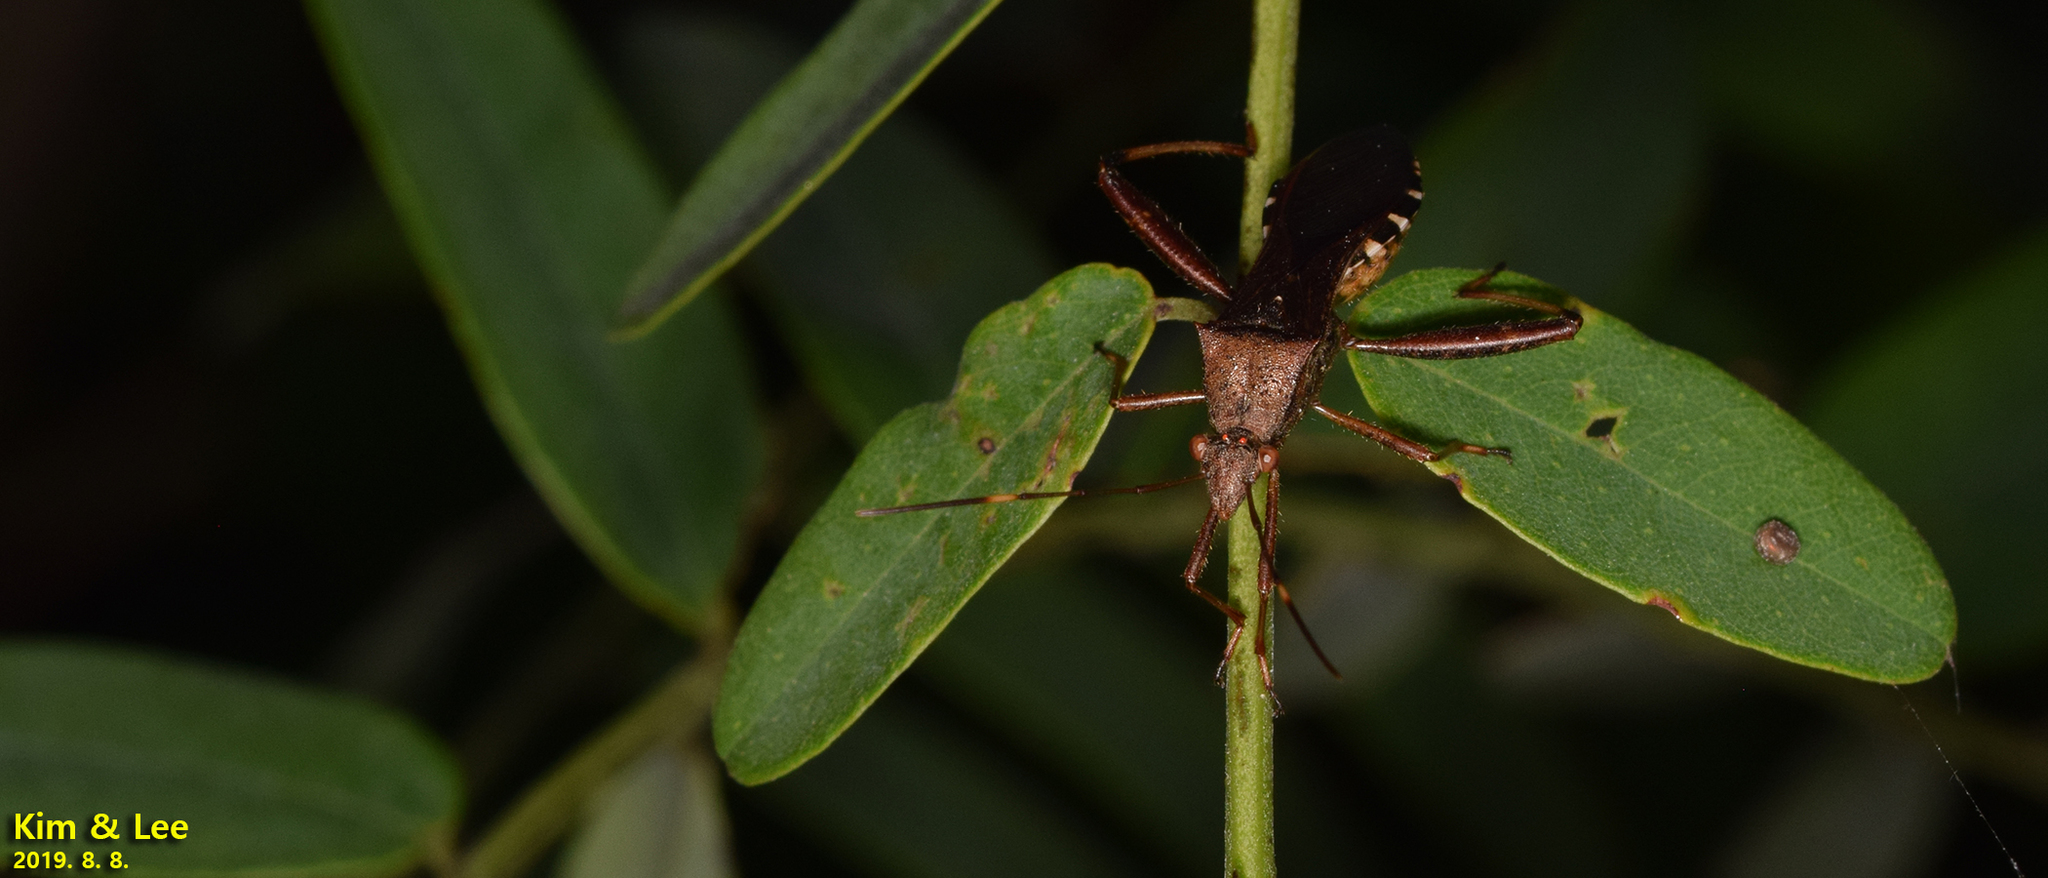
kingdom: Animalia
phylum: Arthropoda
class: Insecta
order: Hemiptera
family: Alydidae
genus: Riptortus
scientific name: Riptortus pedestris
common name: Bean bug
